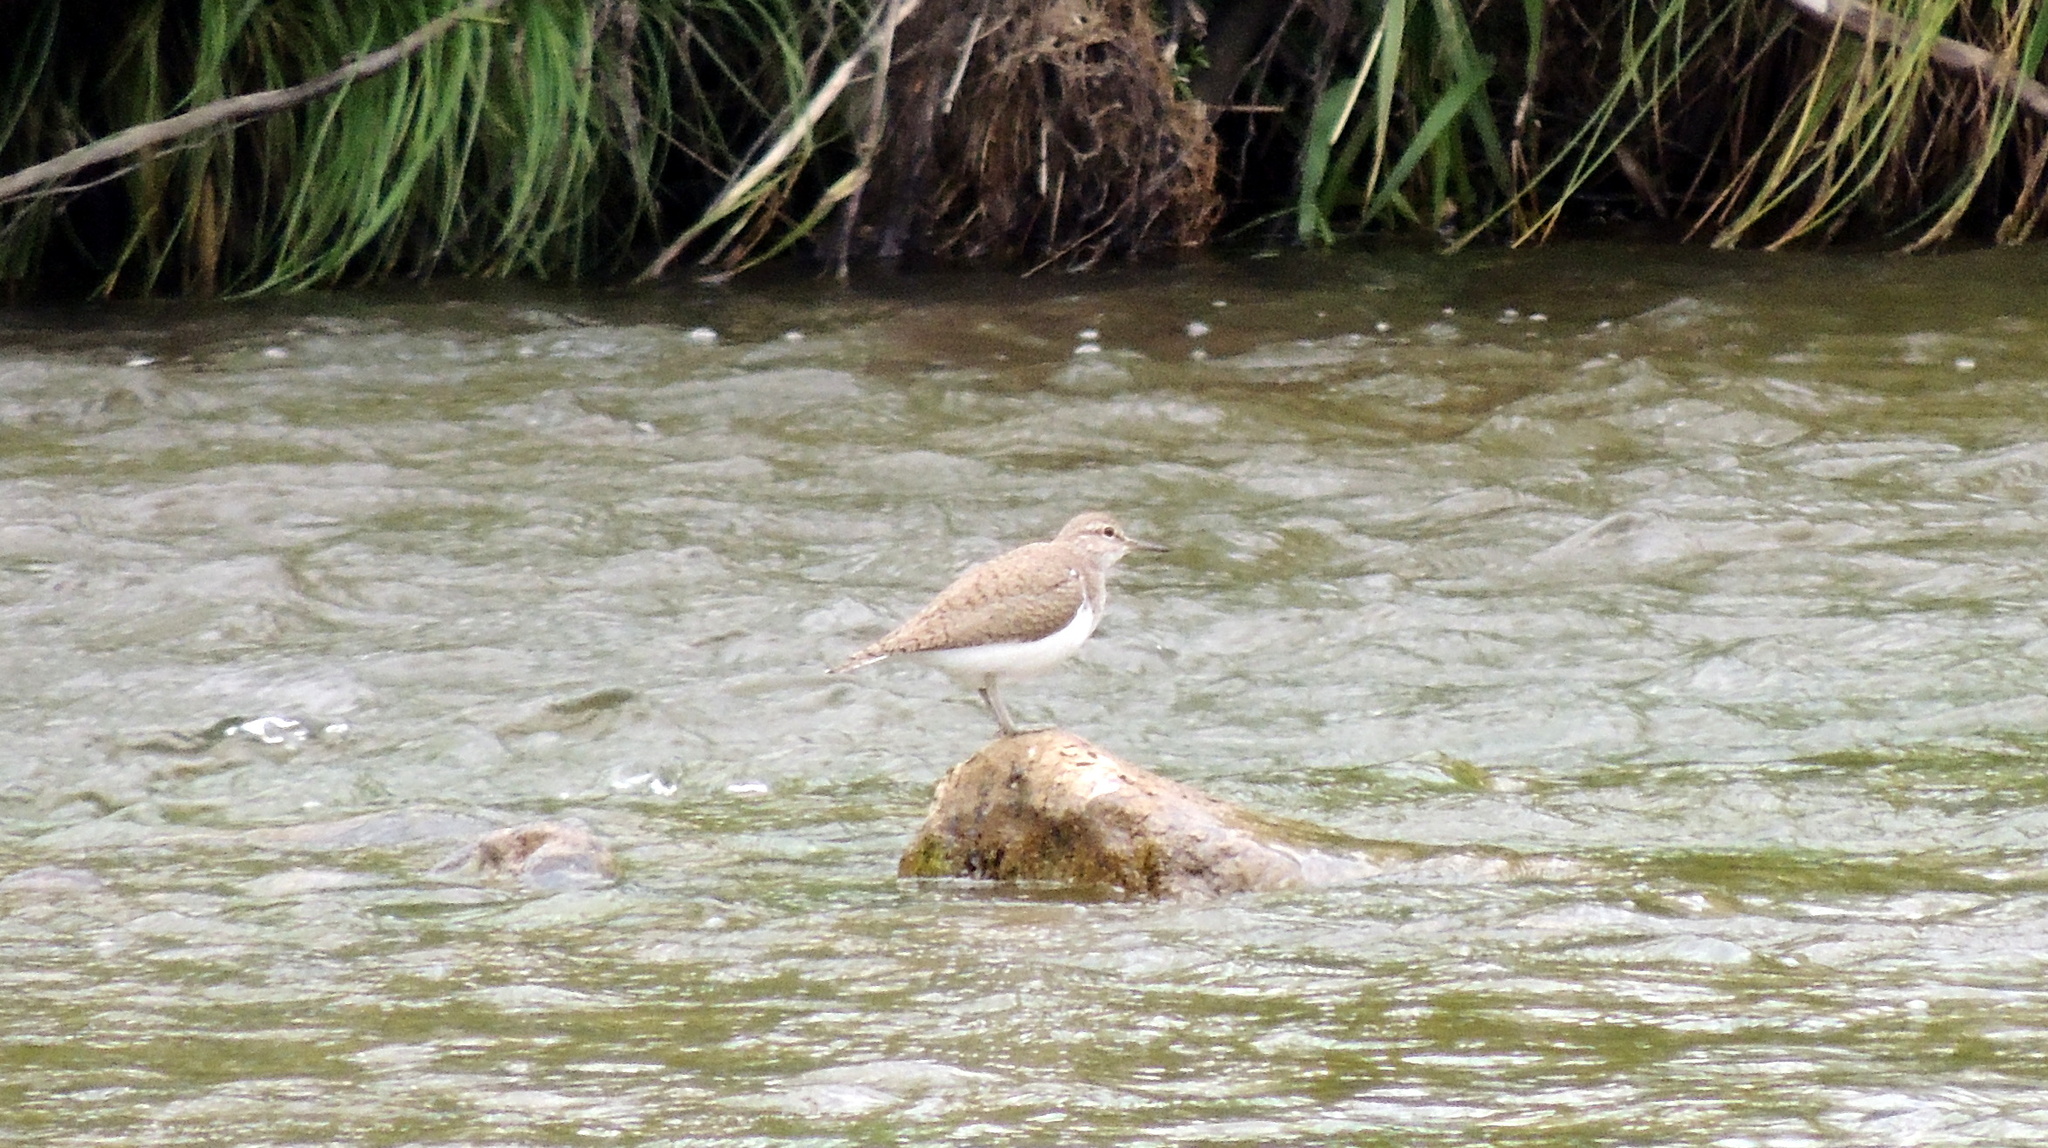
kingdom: Animalia
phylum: Chordata
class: Aves
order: Charadriiformes
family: Scolopacidae
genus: Actitis
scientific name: Actitis hypoleucos
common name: Common sandpiper
